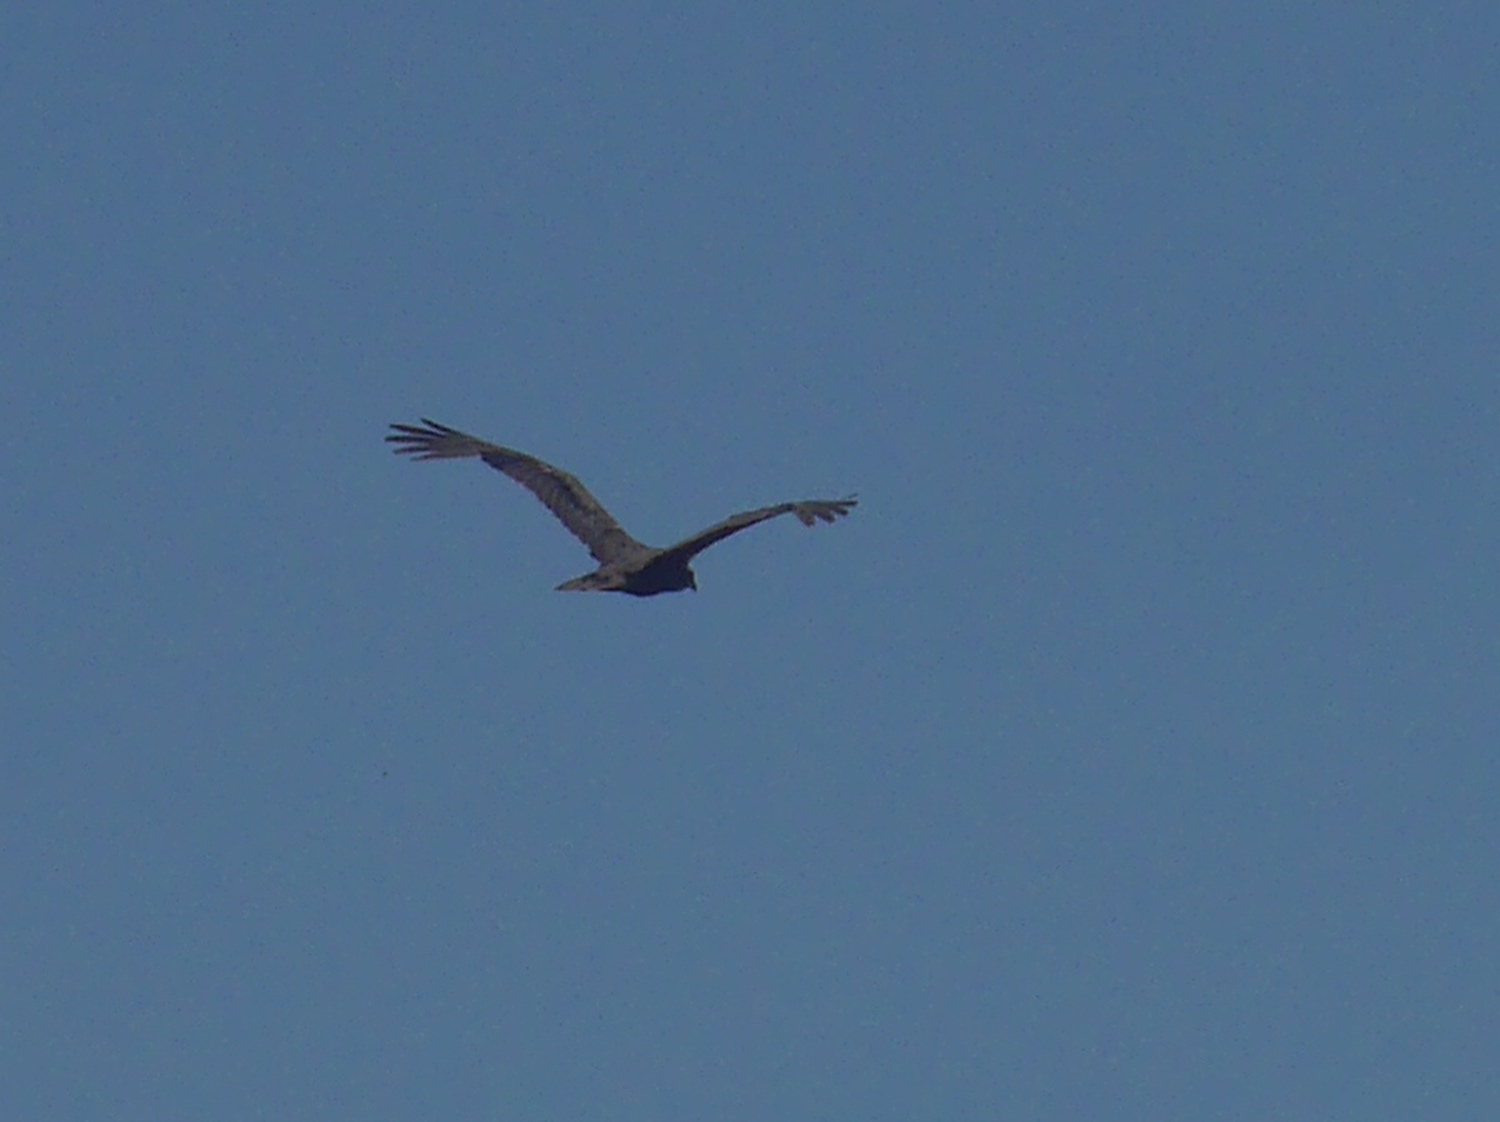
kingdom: Animalia
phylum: Chordata
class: Aves
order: Accipitriformes
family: Accipitridae
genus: Circus
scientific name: Circus aeruginosus
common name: Western marsh harrier
